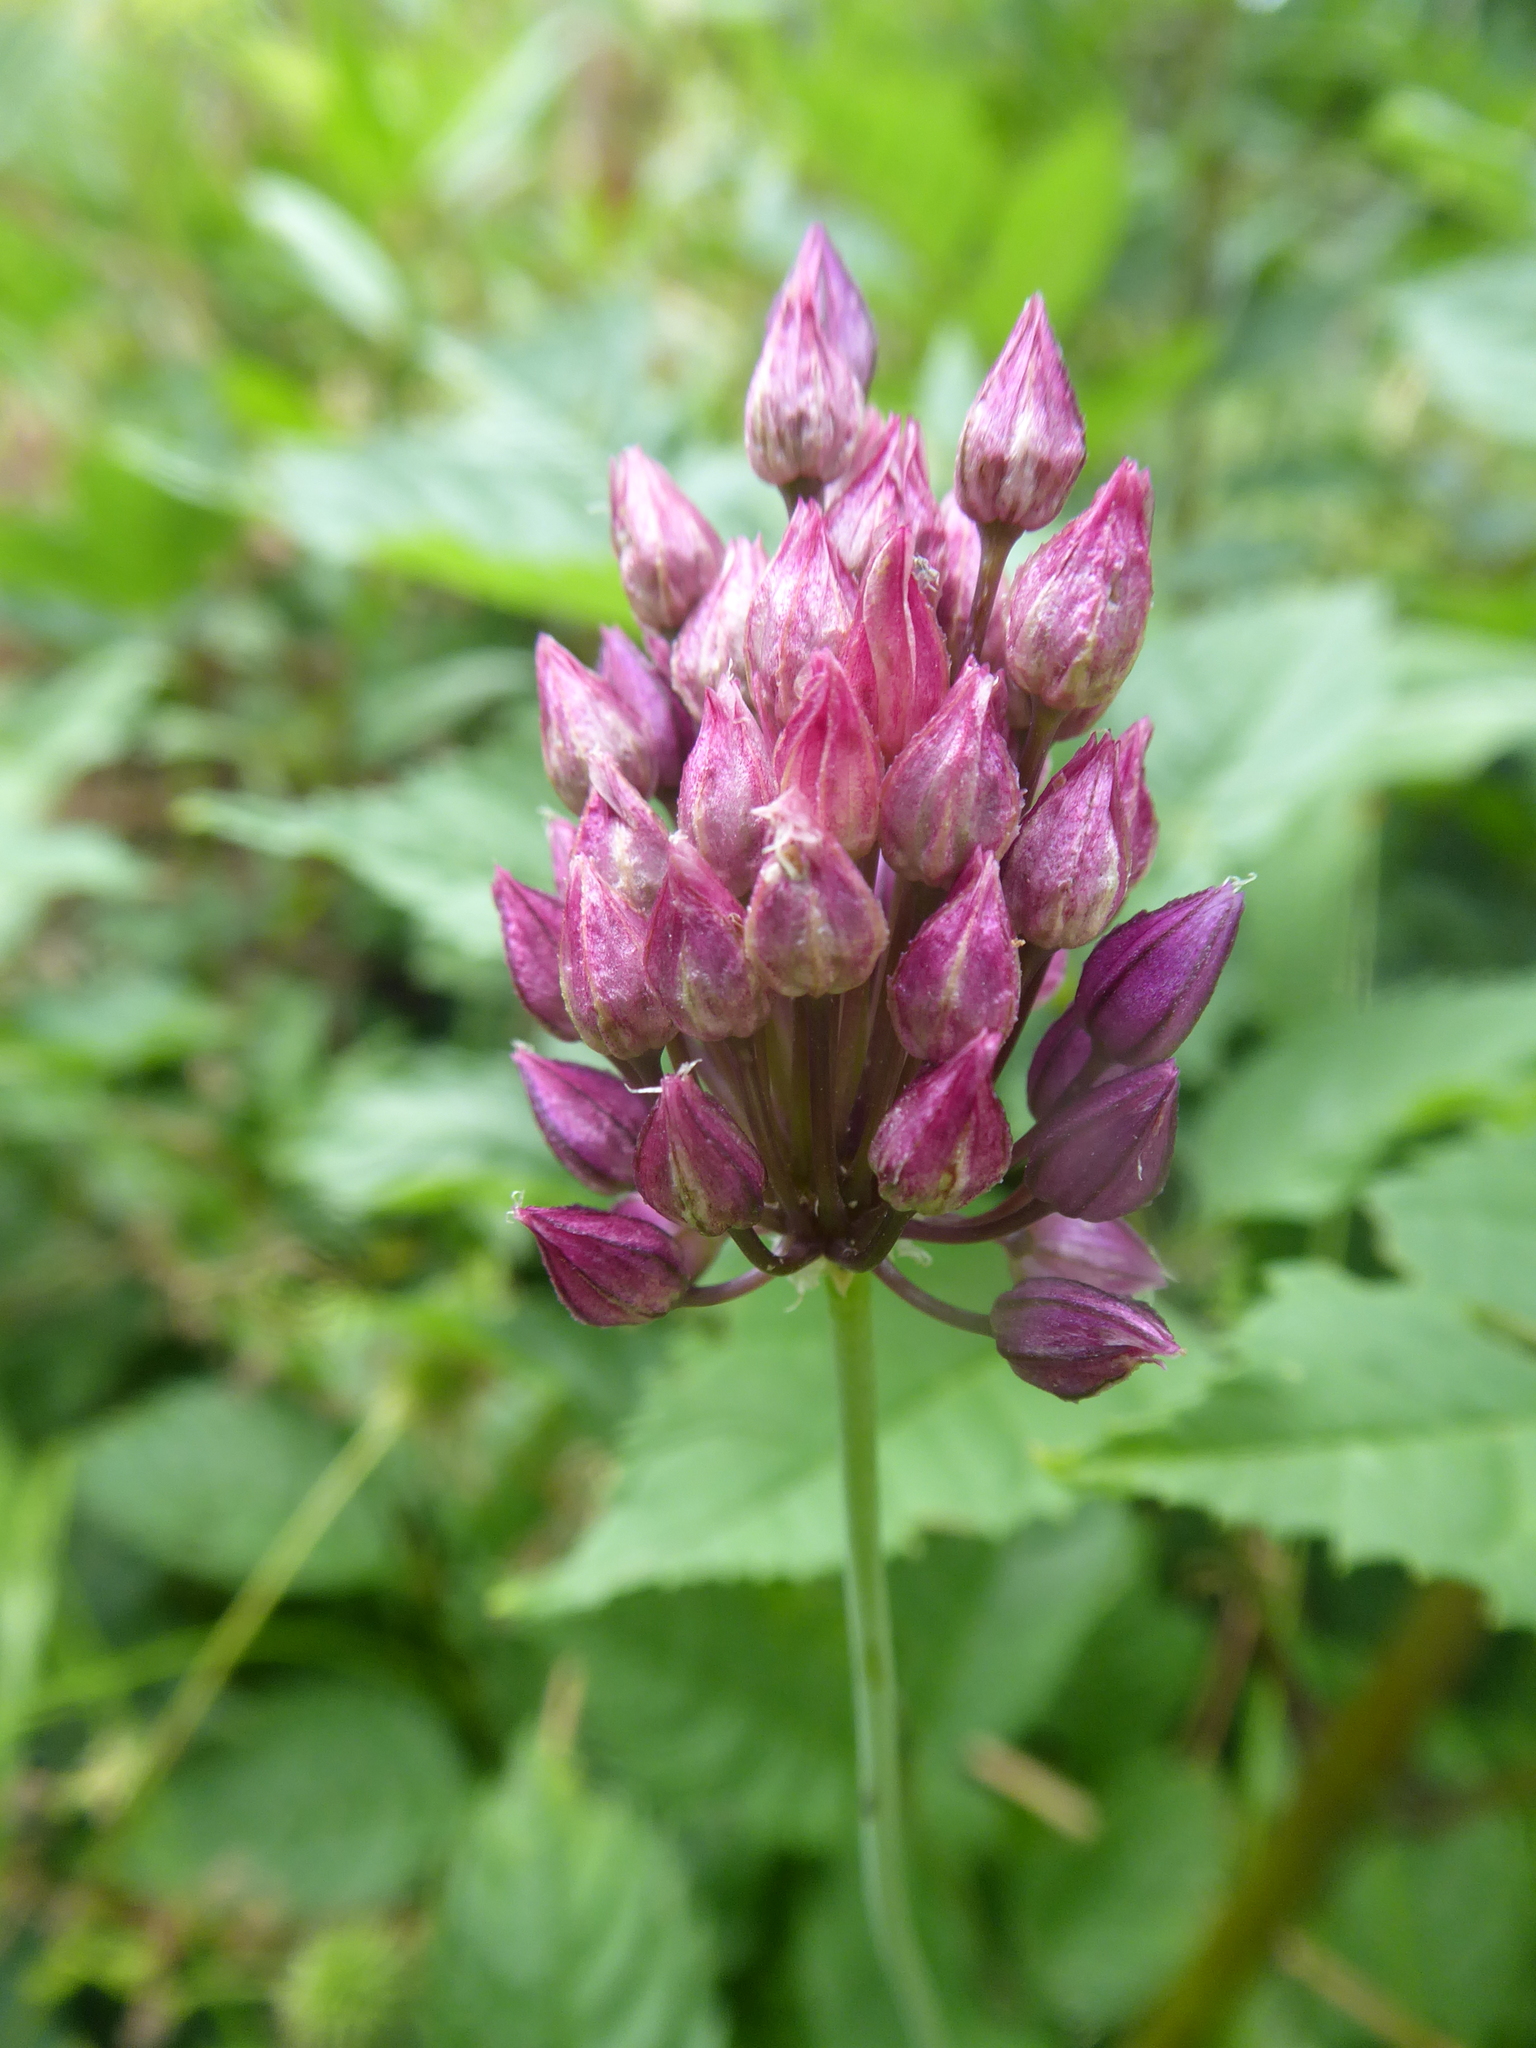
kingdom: Plantae
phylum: Tracheophyta
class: Liliopsida
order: Asparagales
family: Amaryllidaceae
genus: Allium
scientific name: Allium rotundum
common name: Sand leek
